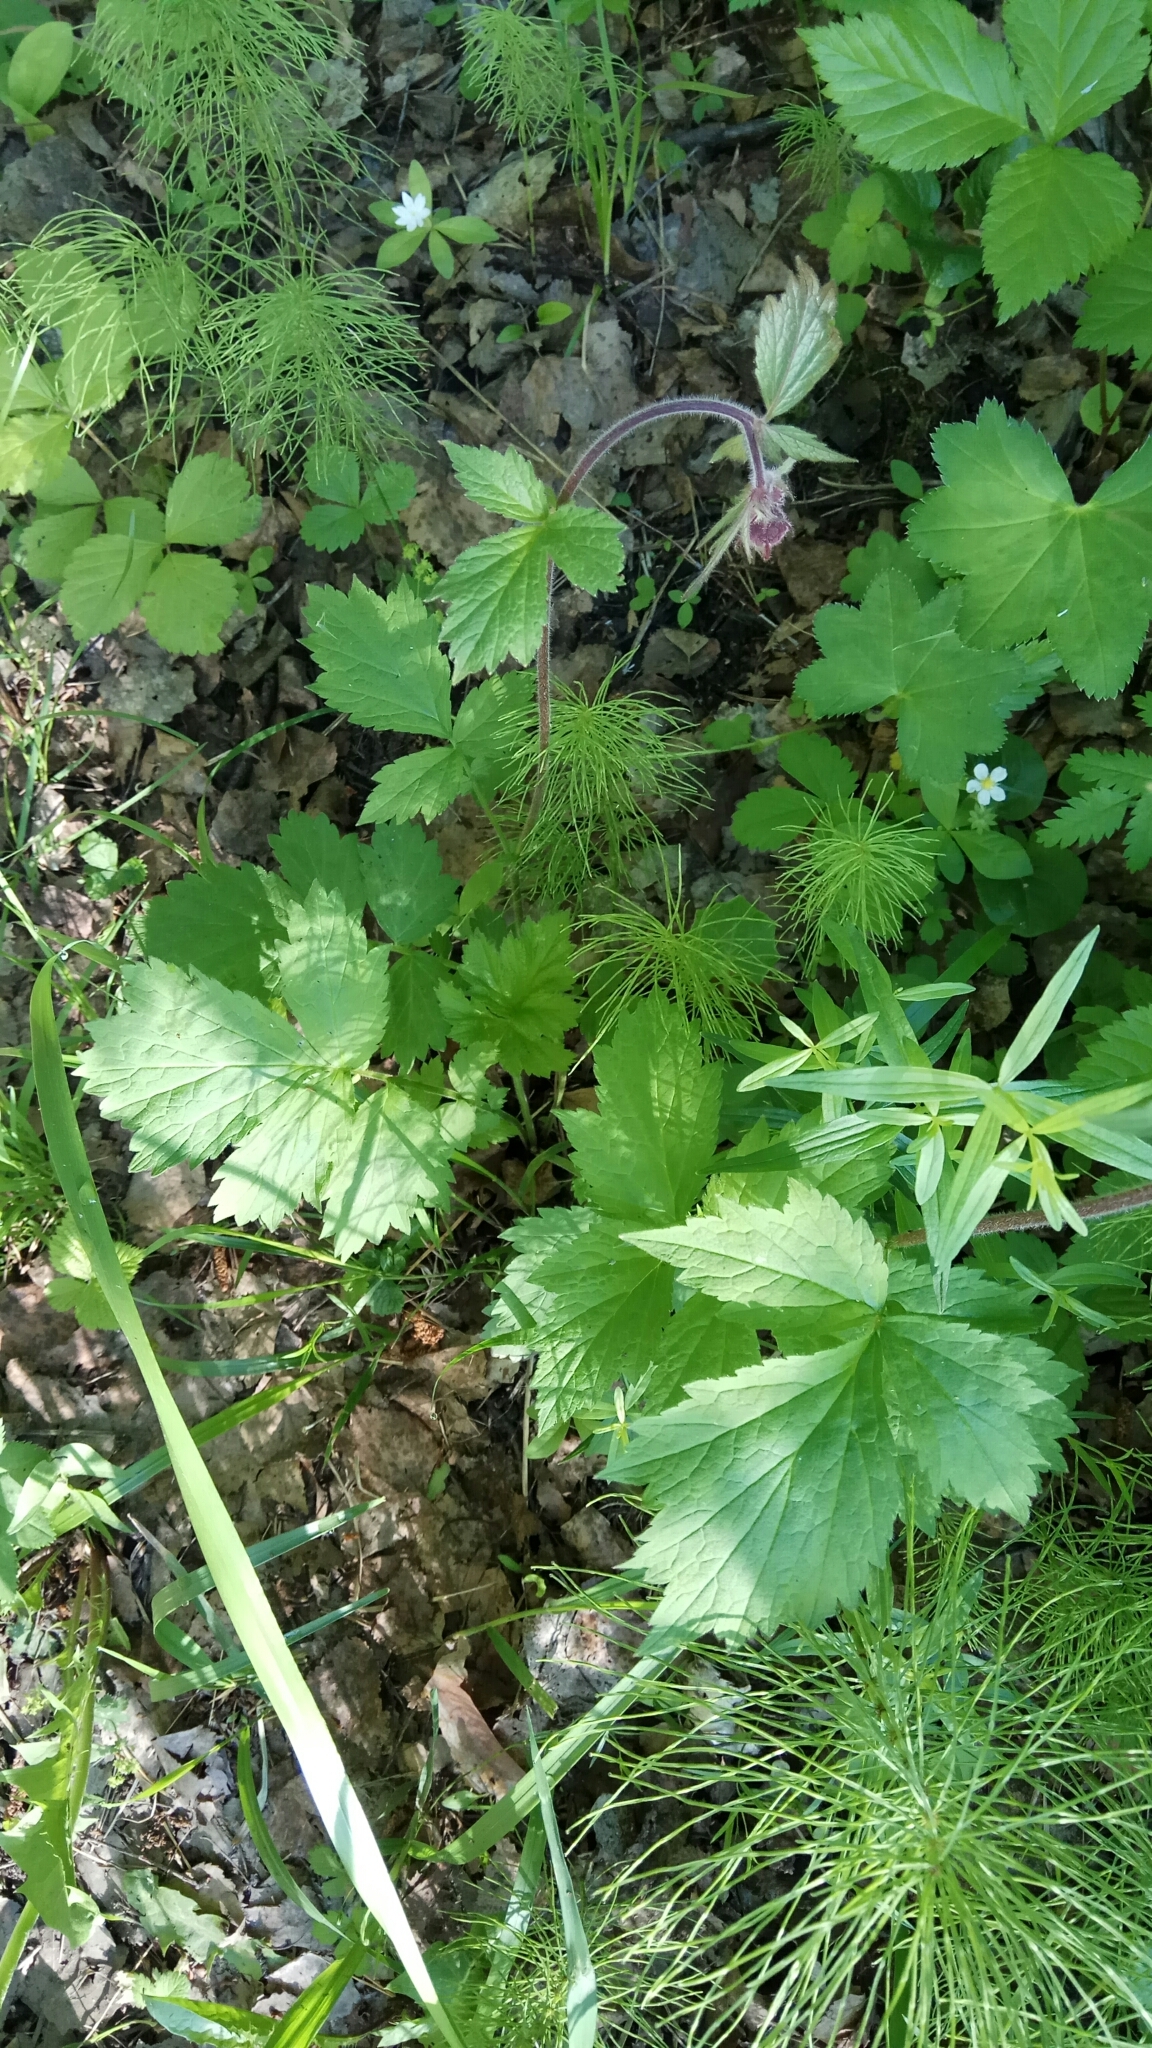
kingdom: Plantae
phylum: Tracheophyta
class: Magnoliopsida
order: Rosales
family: Rosaceae
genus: Geum
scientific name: Geum rivale
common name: Water avens
